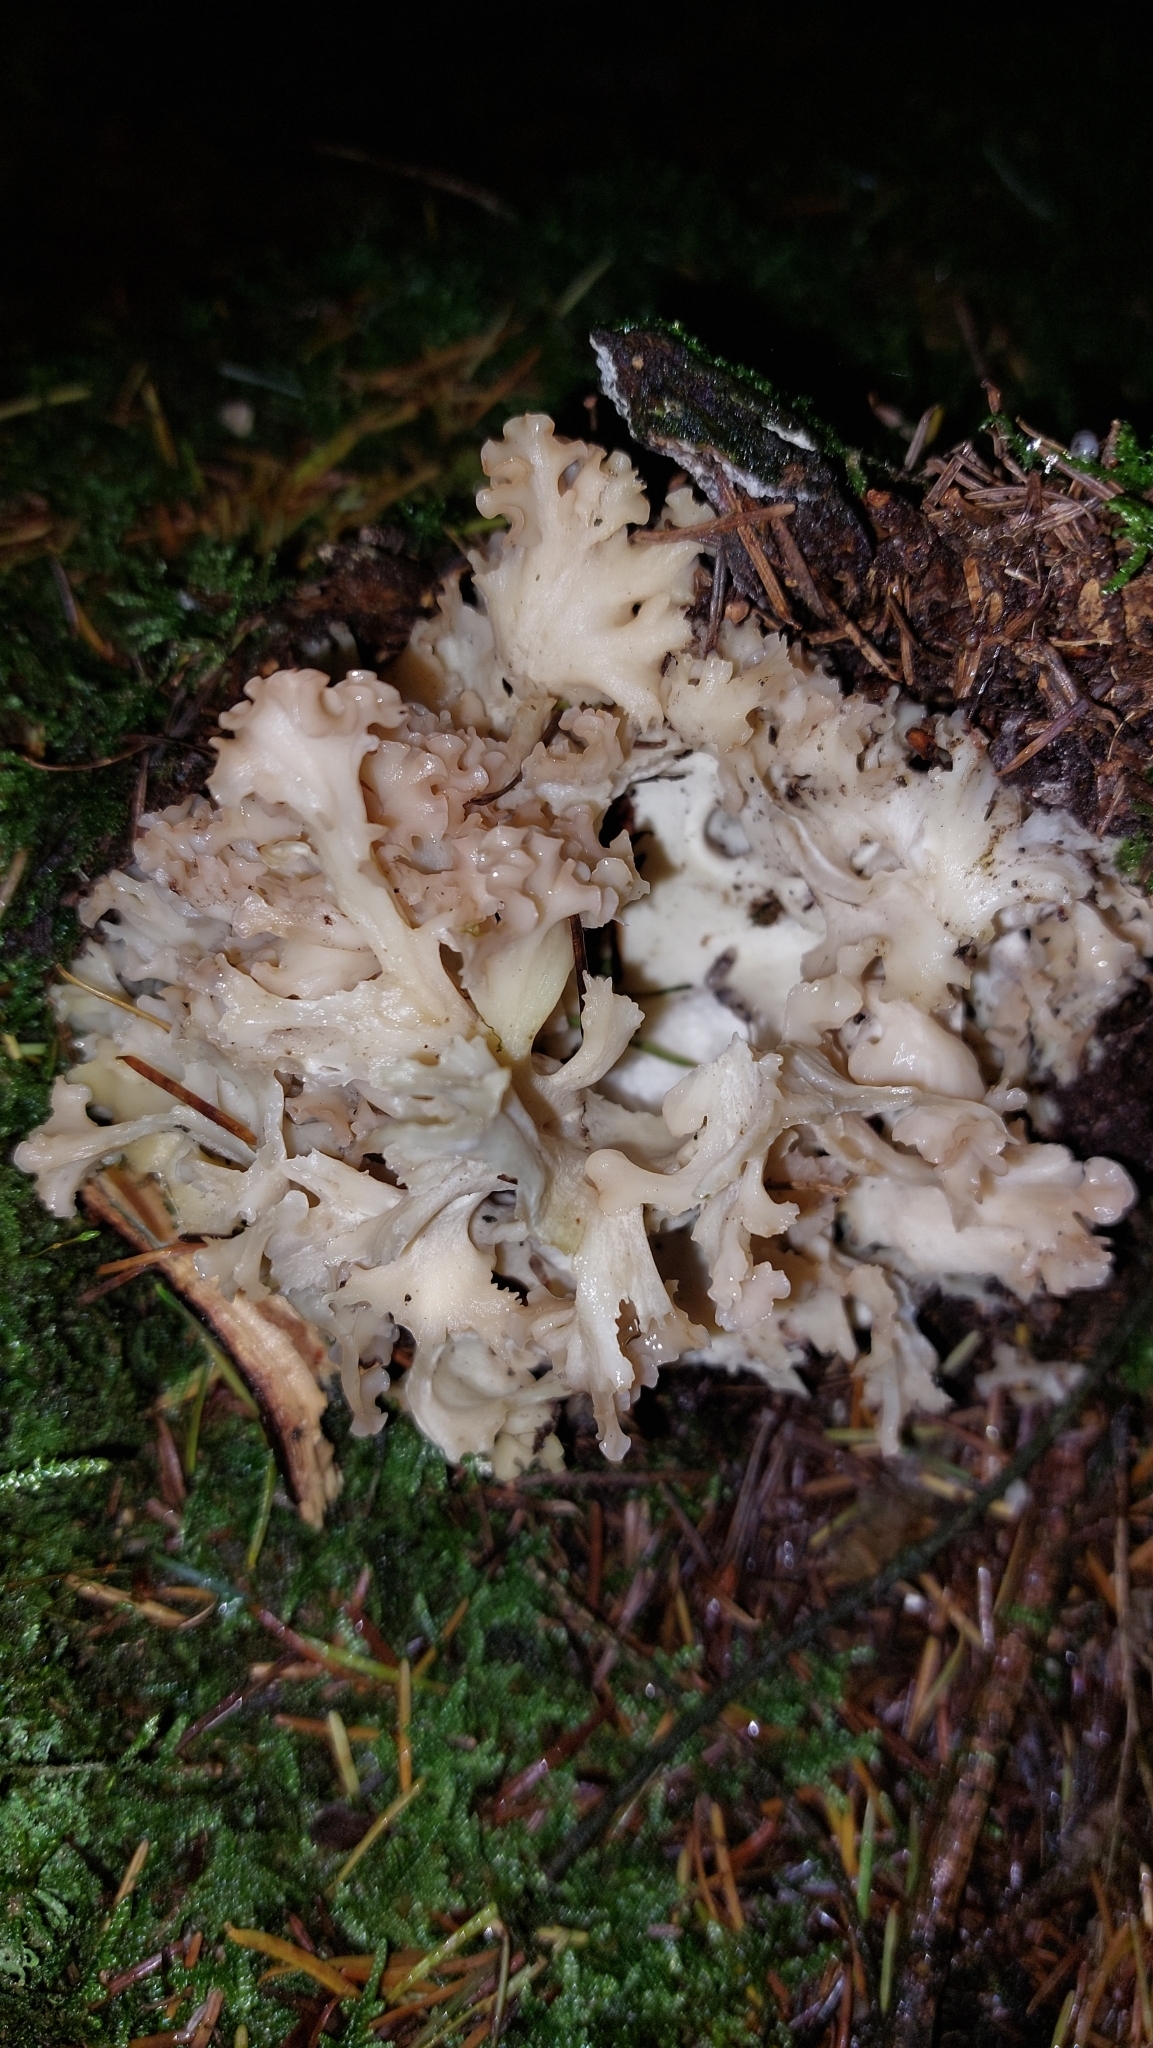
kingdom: Fungi
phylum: Basidiomycota
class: Agaricomycetes
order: Polyporales
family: Sparassidaceae
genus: Sparassis
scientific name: Sparassis crispa
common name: Brain fungus
